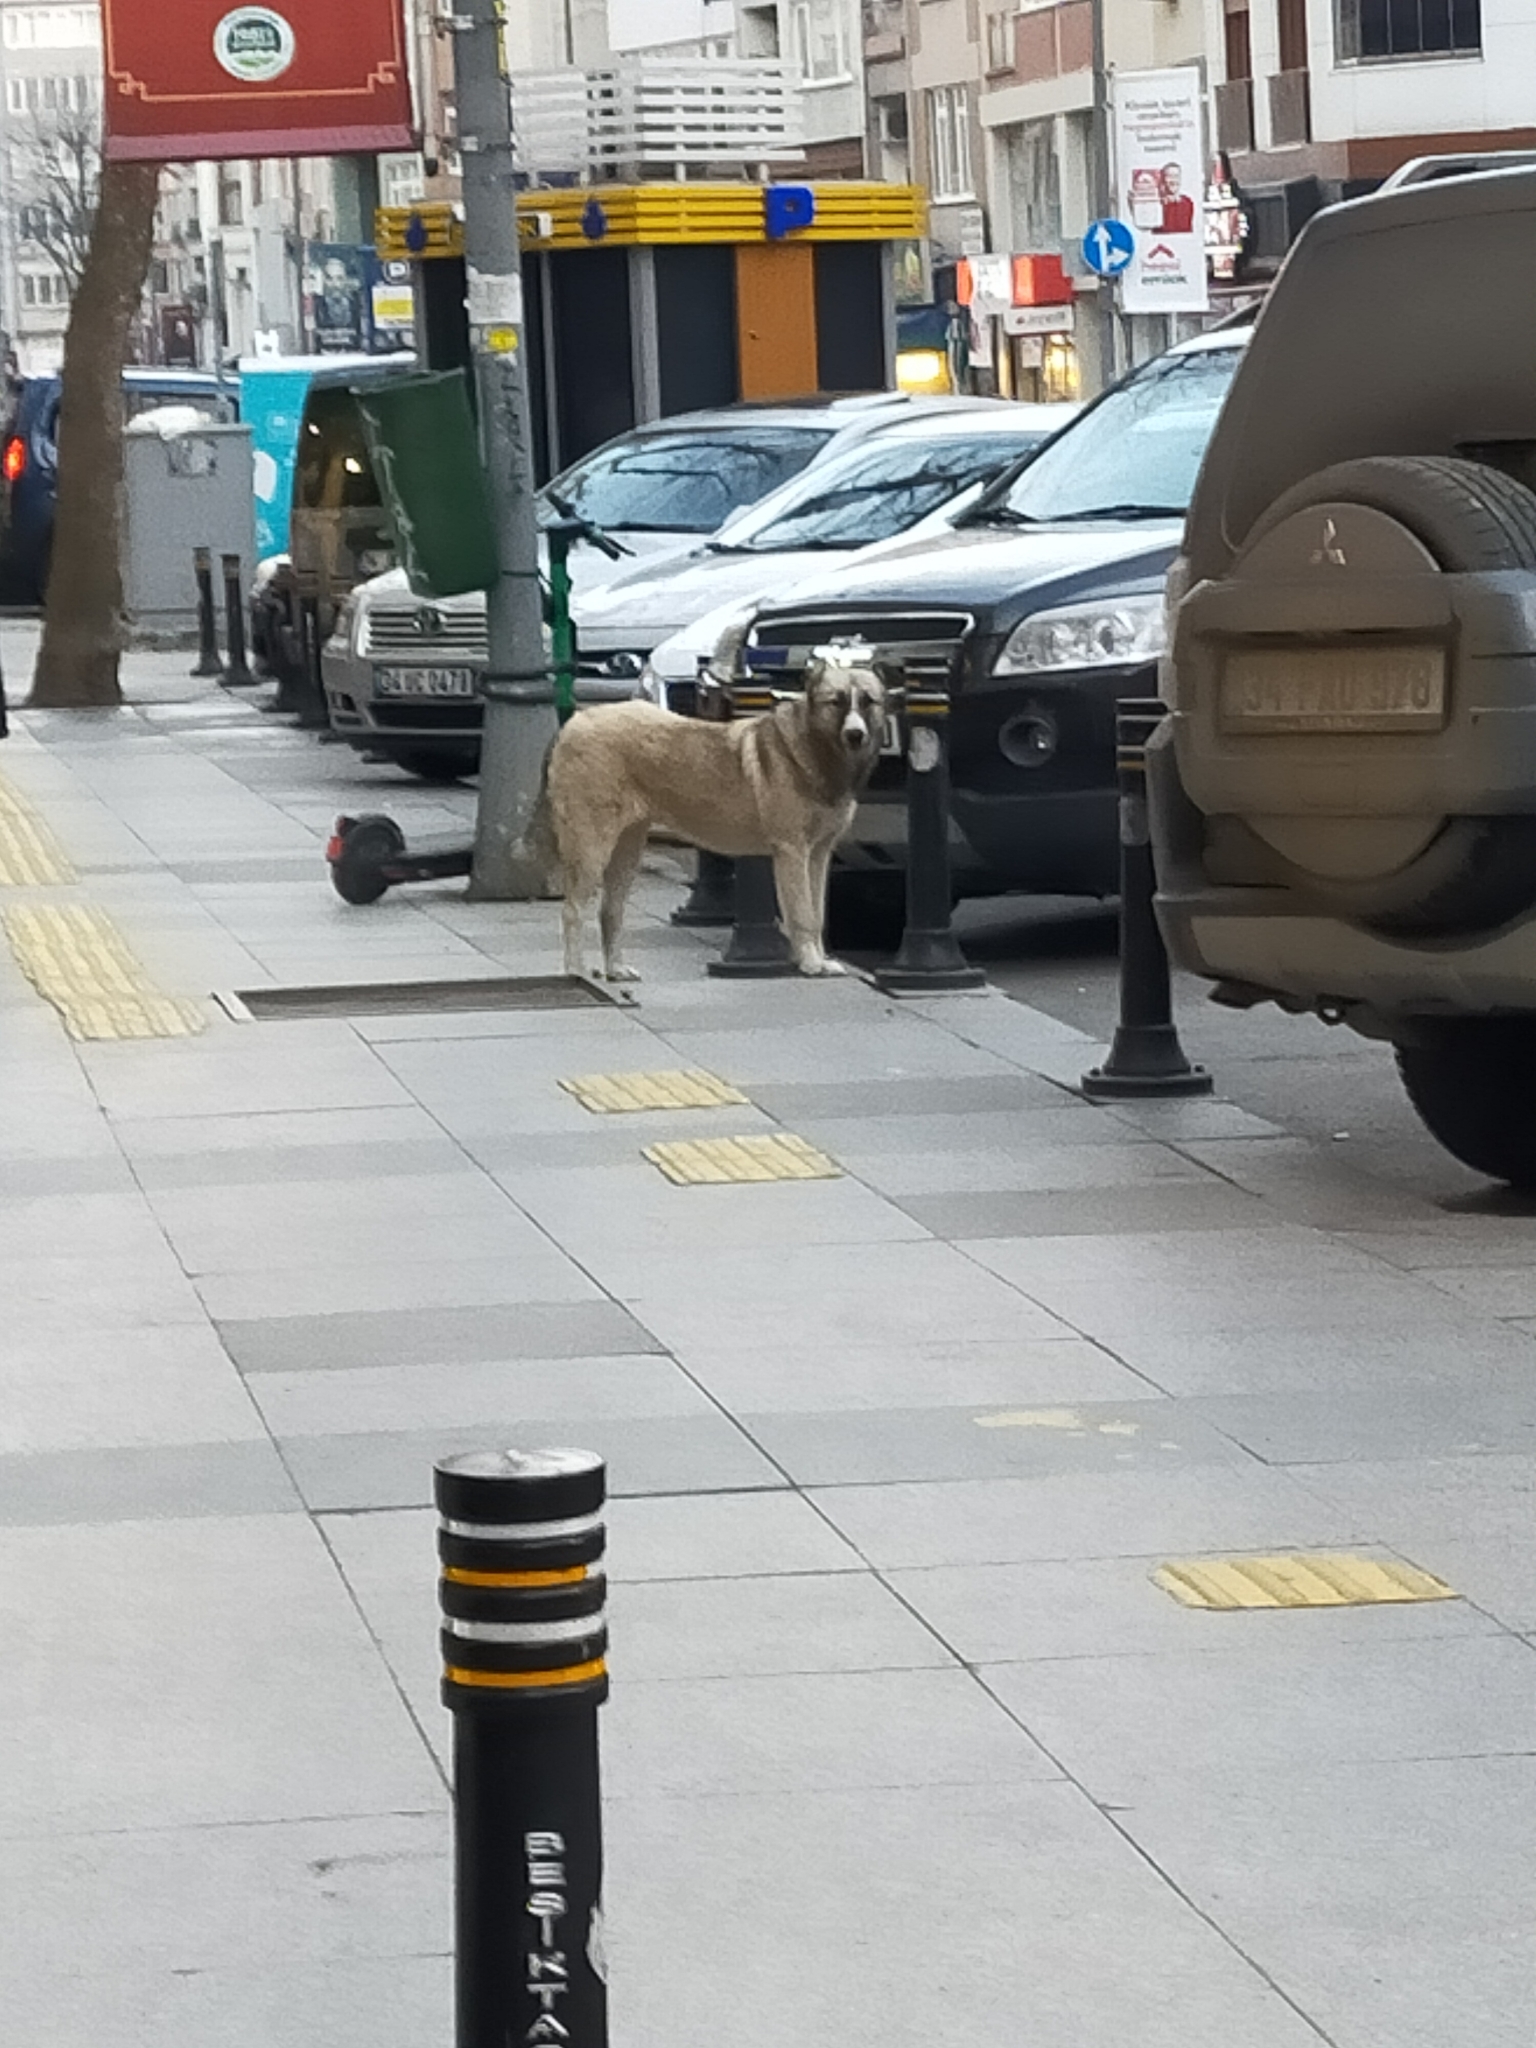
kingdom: Animalia
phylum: Chordata
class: Mammalia
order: Carnivora
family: Canidae
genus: Canis
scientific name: Canis lupus
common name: Gray wolf
